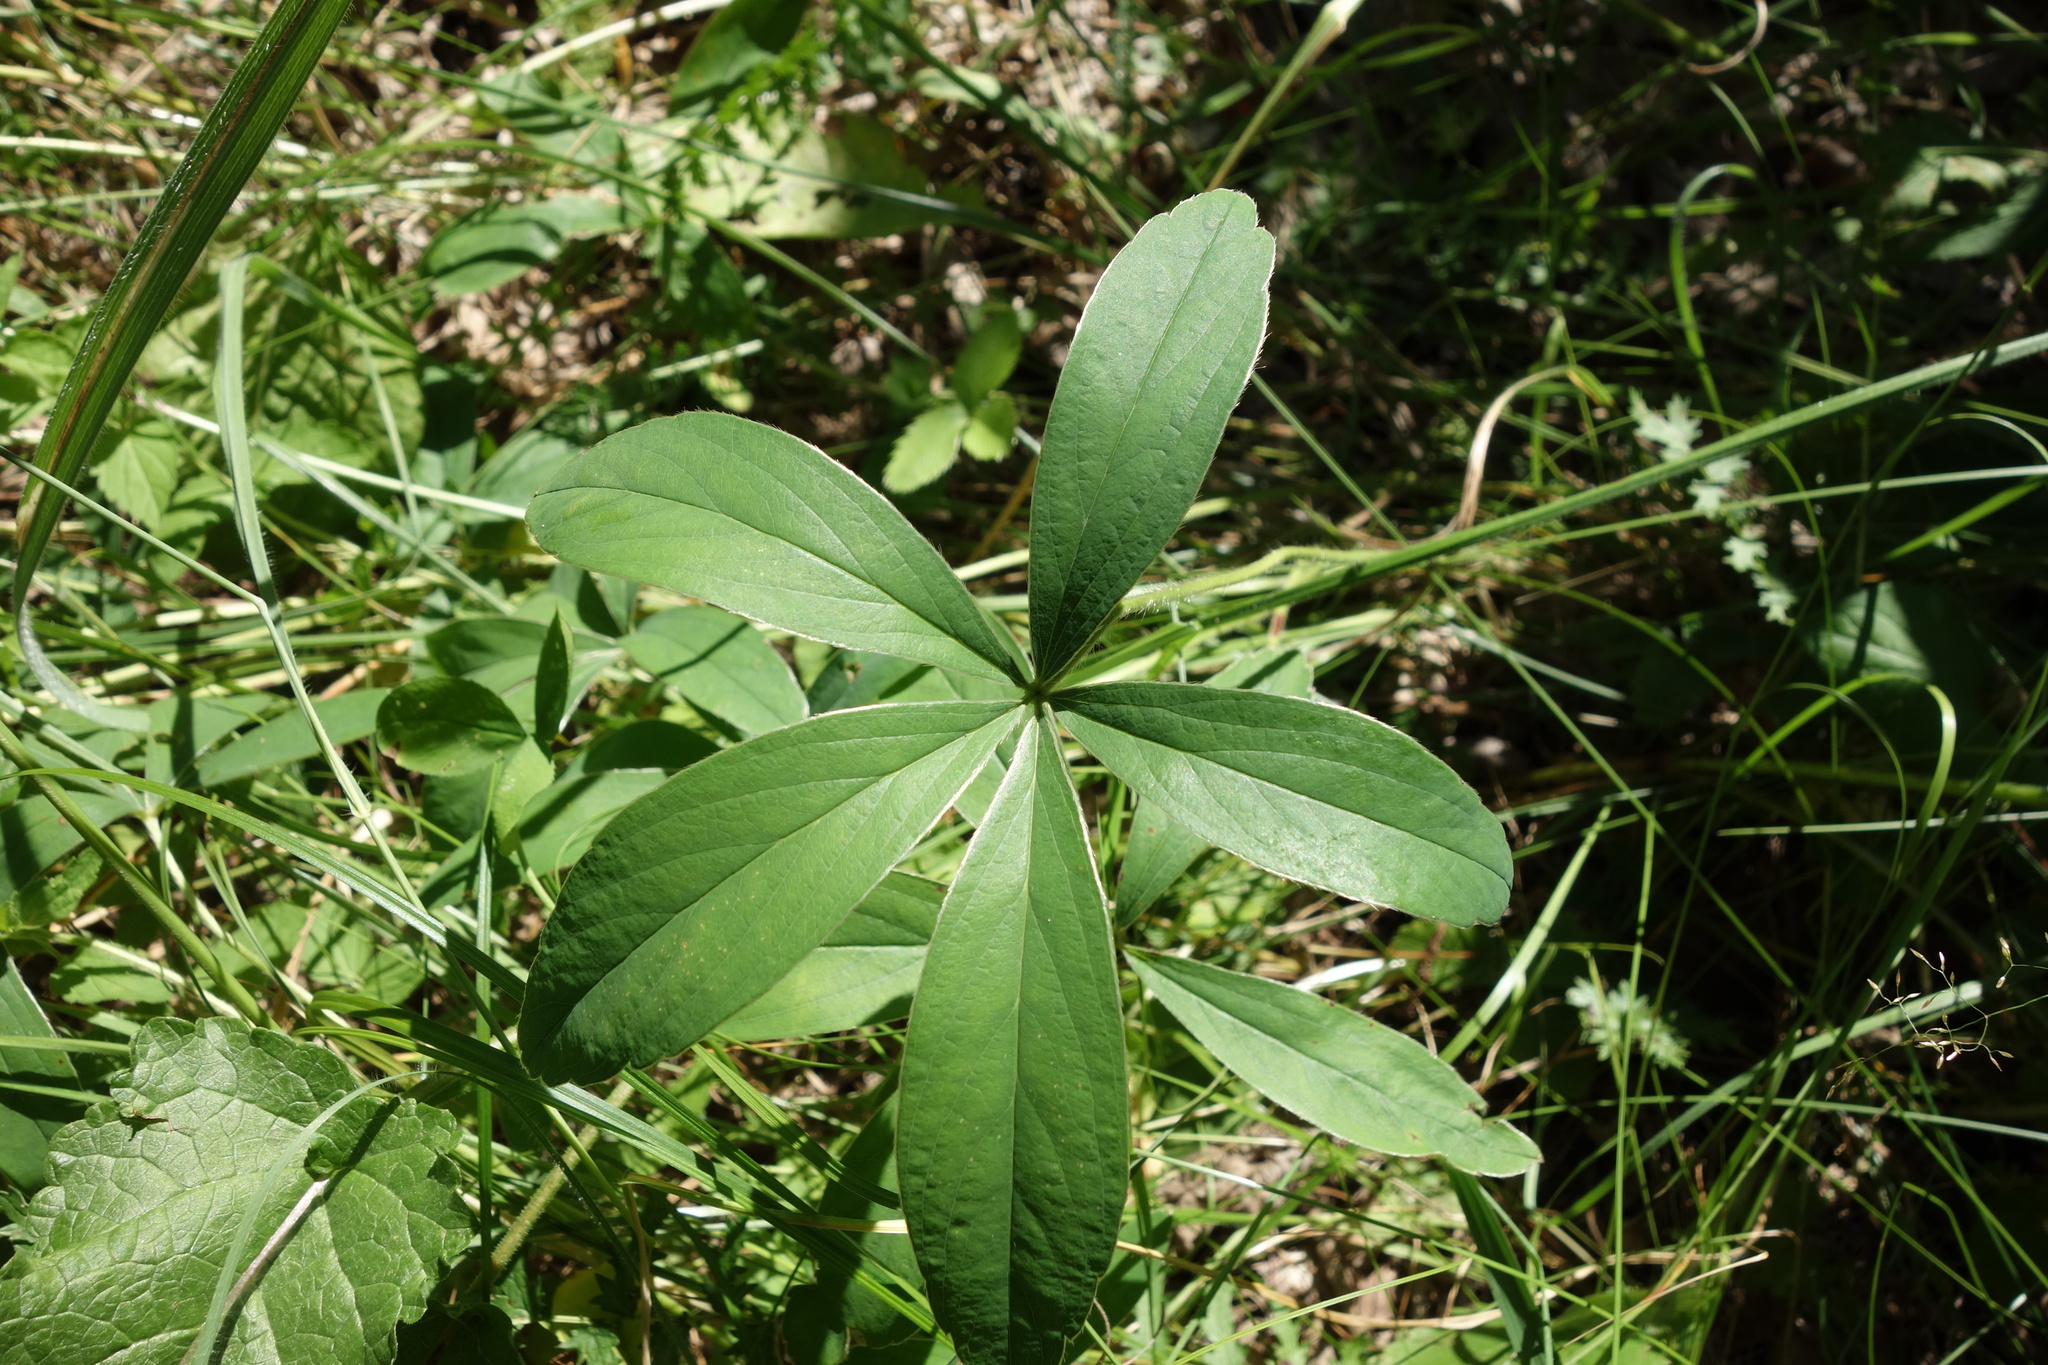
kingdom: Plantae
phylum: Tracheophyta
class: Magnoliopsida
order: Rosales
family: Rosaceae
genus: Potentilla
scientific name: Potentilla alba
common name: White cinquefoil
